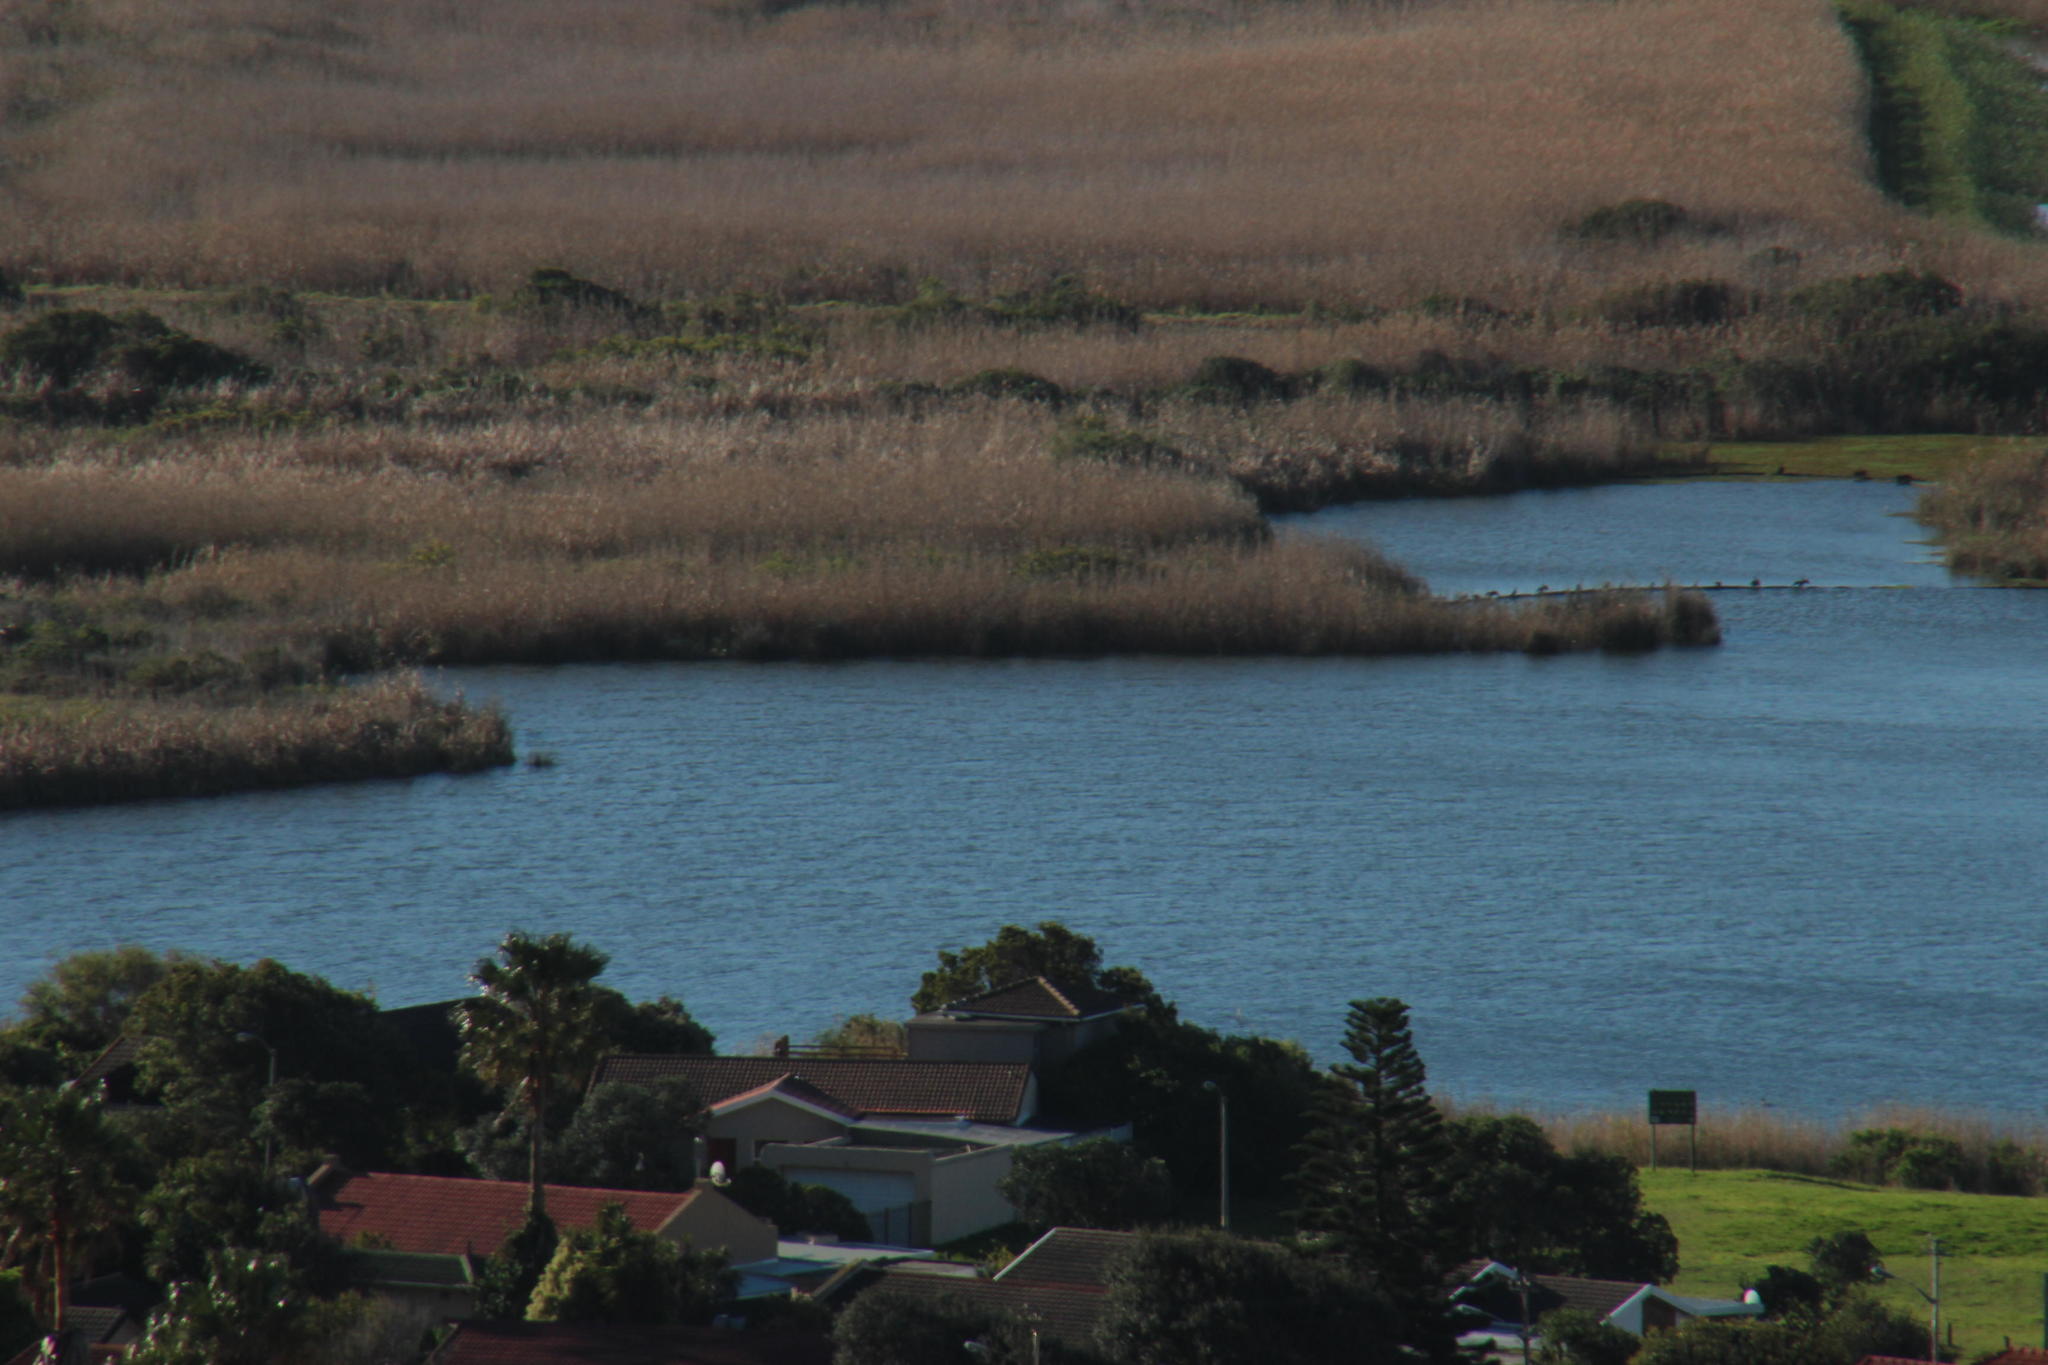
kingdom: Plantae
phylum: Tracheophyta
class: Liliopsida
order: Poales
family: Poaceae
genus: Phragmites
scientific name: Phragmites australis
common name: Common reed
